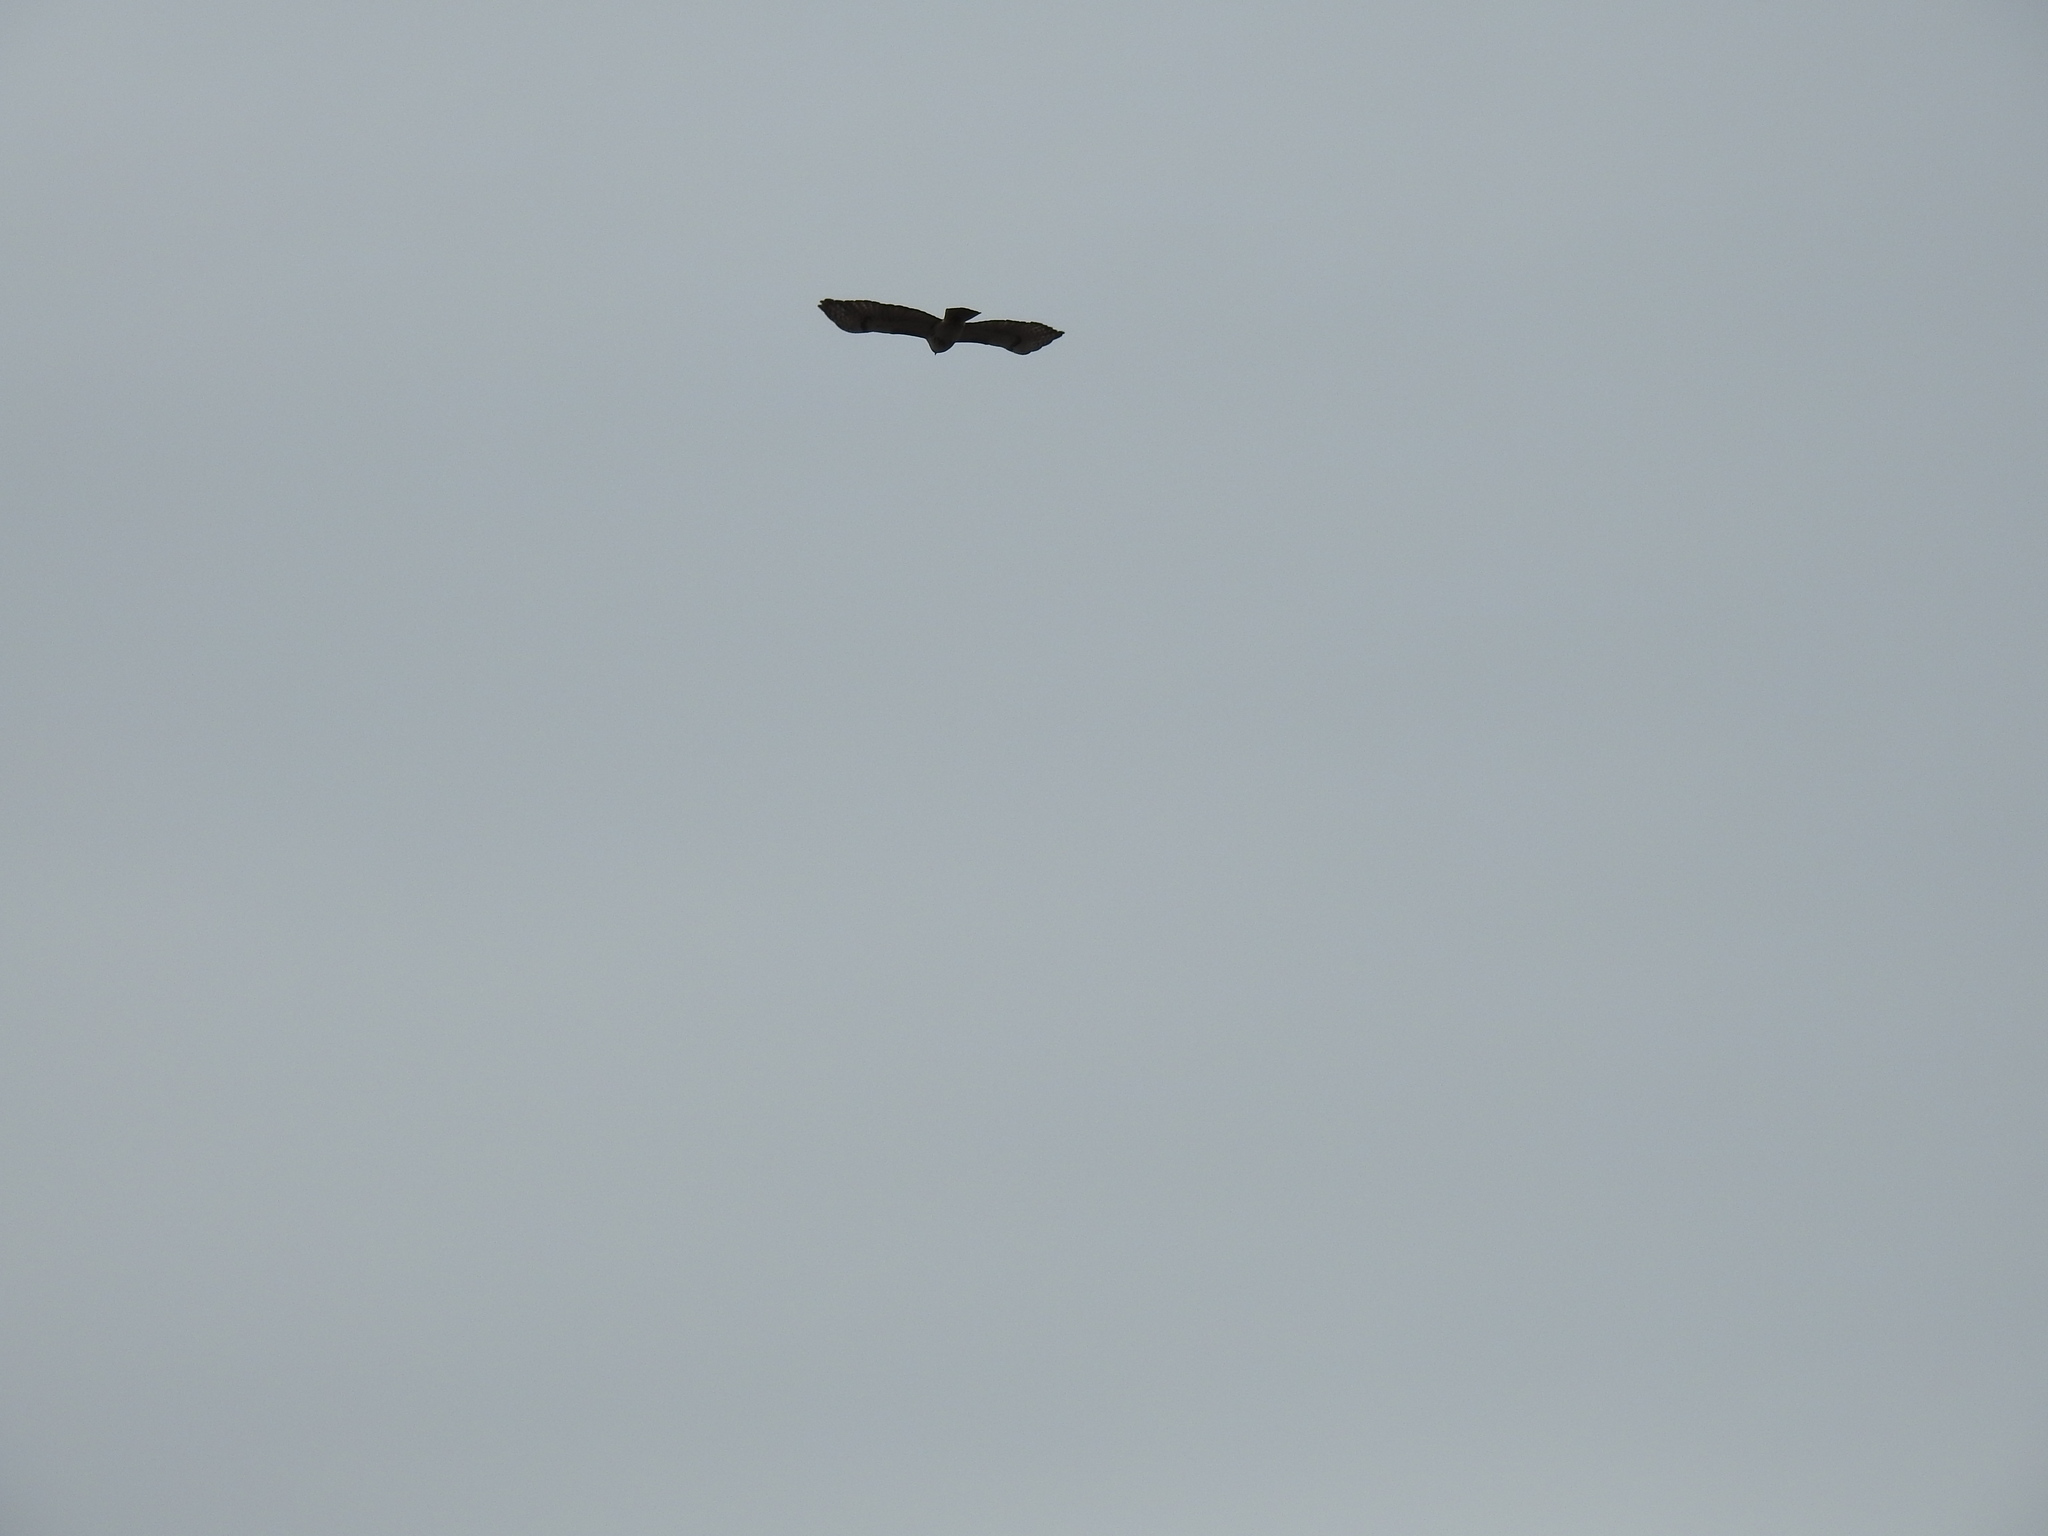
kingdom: Animalia
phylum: Chordata
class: Aves
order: Accipitriformes
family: Accipitridae
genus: Buteo
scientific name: Buteo jamaicensis
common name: Red-tailed hawk
